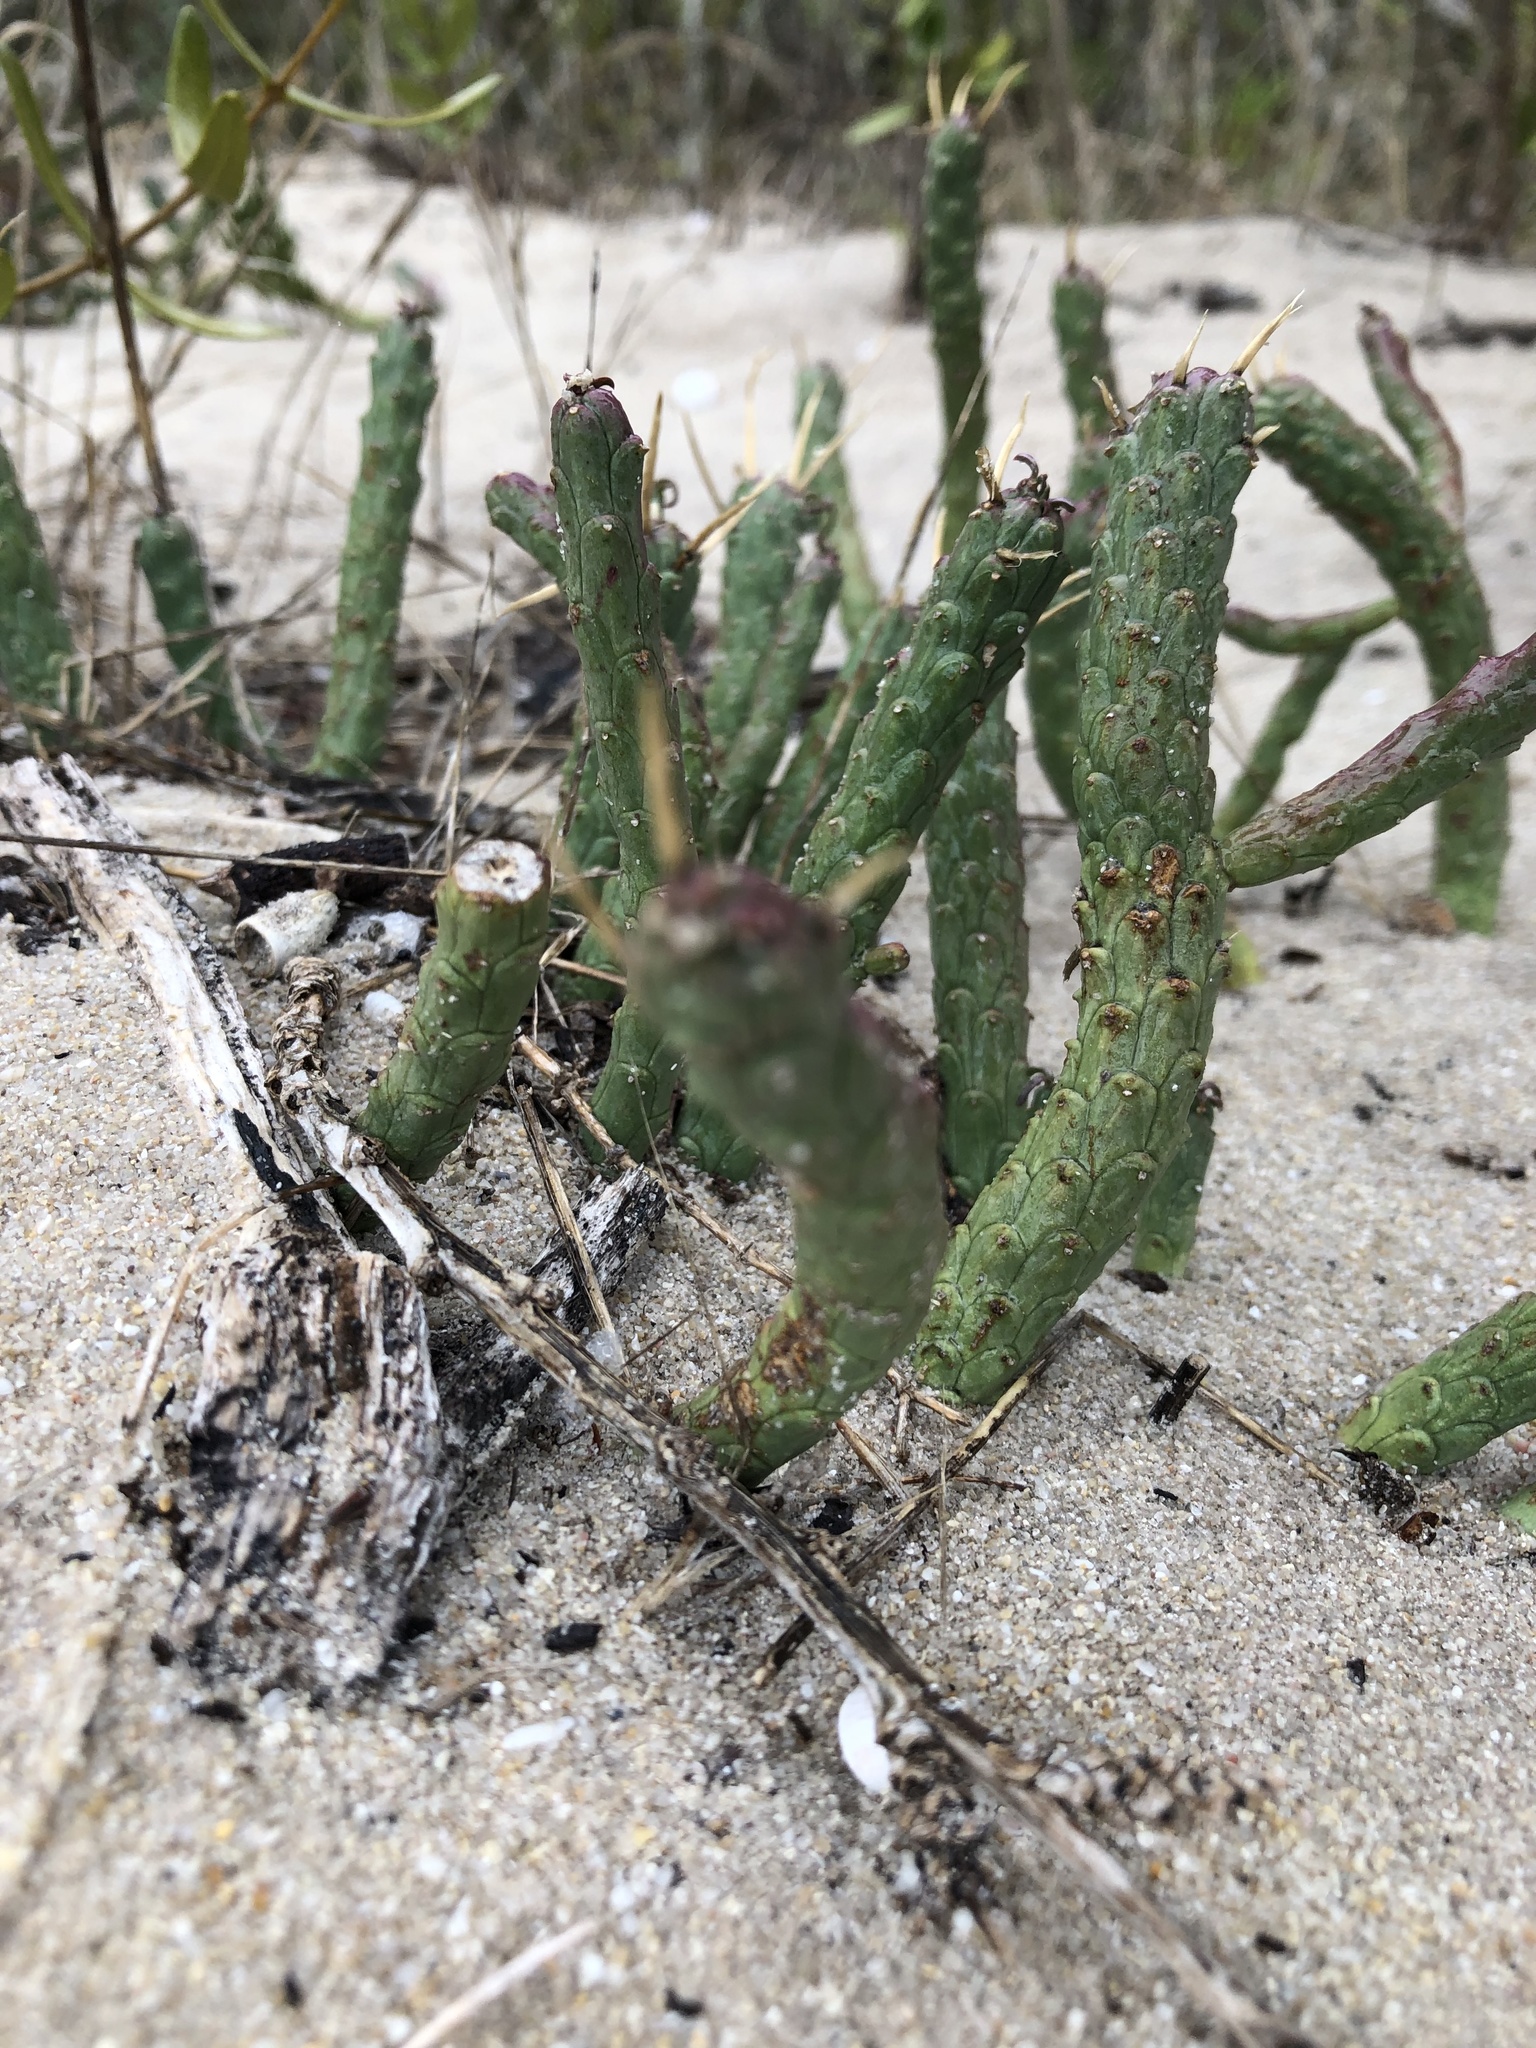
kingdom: Plantae
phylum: Tracheophyta
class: Magnoliopsida
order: Malpighiales
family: Euphorbiaceae
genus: Euphorbia
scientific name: Euphorbia caput-medusae
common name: Medusa's-head
